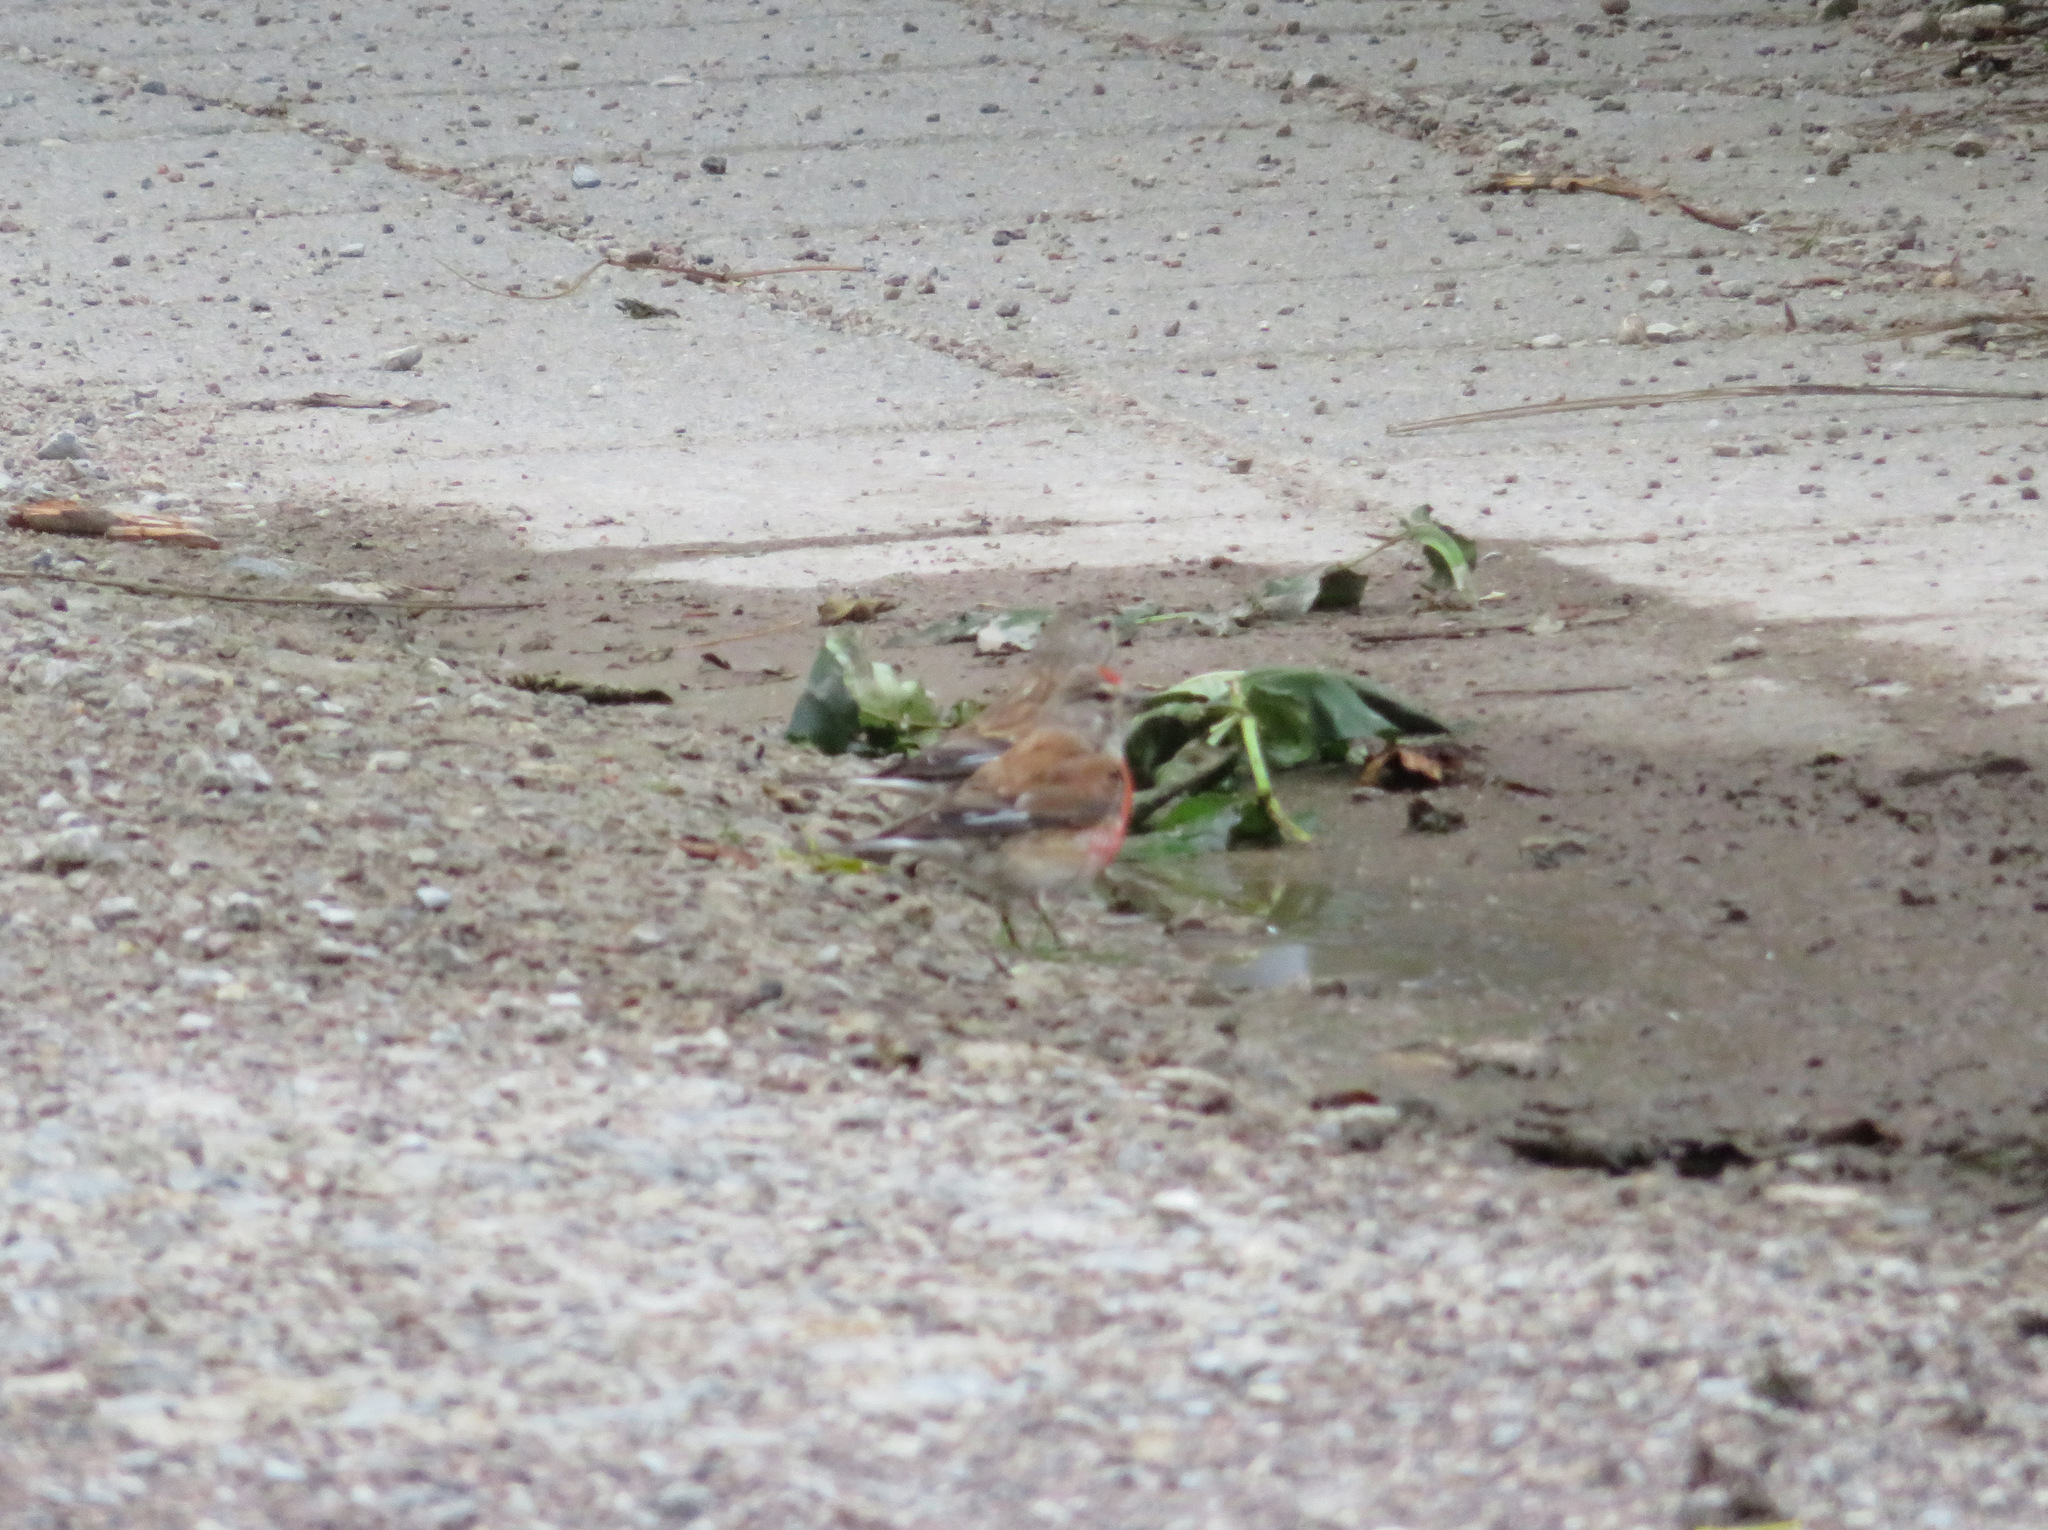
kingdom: Animalia
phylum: Chordata
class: Aves
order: Passeriformes
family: Fringillidae
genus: Linaria
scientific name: Linaria cannabina
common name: Common linnet
